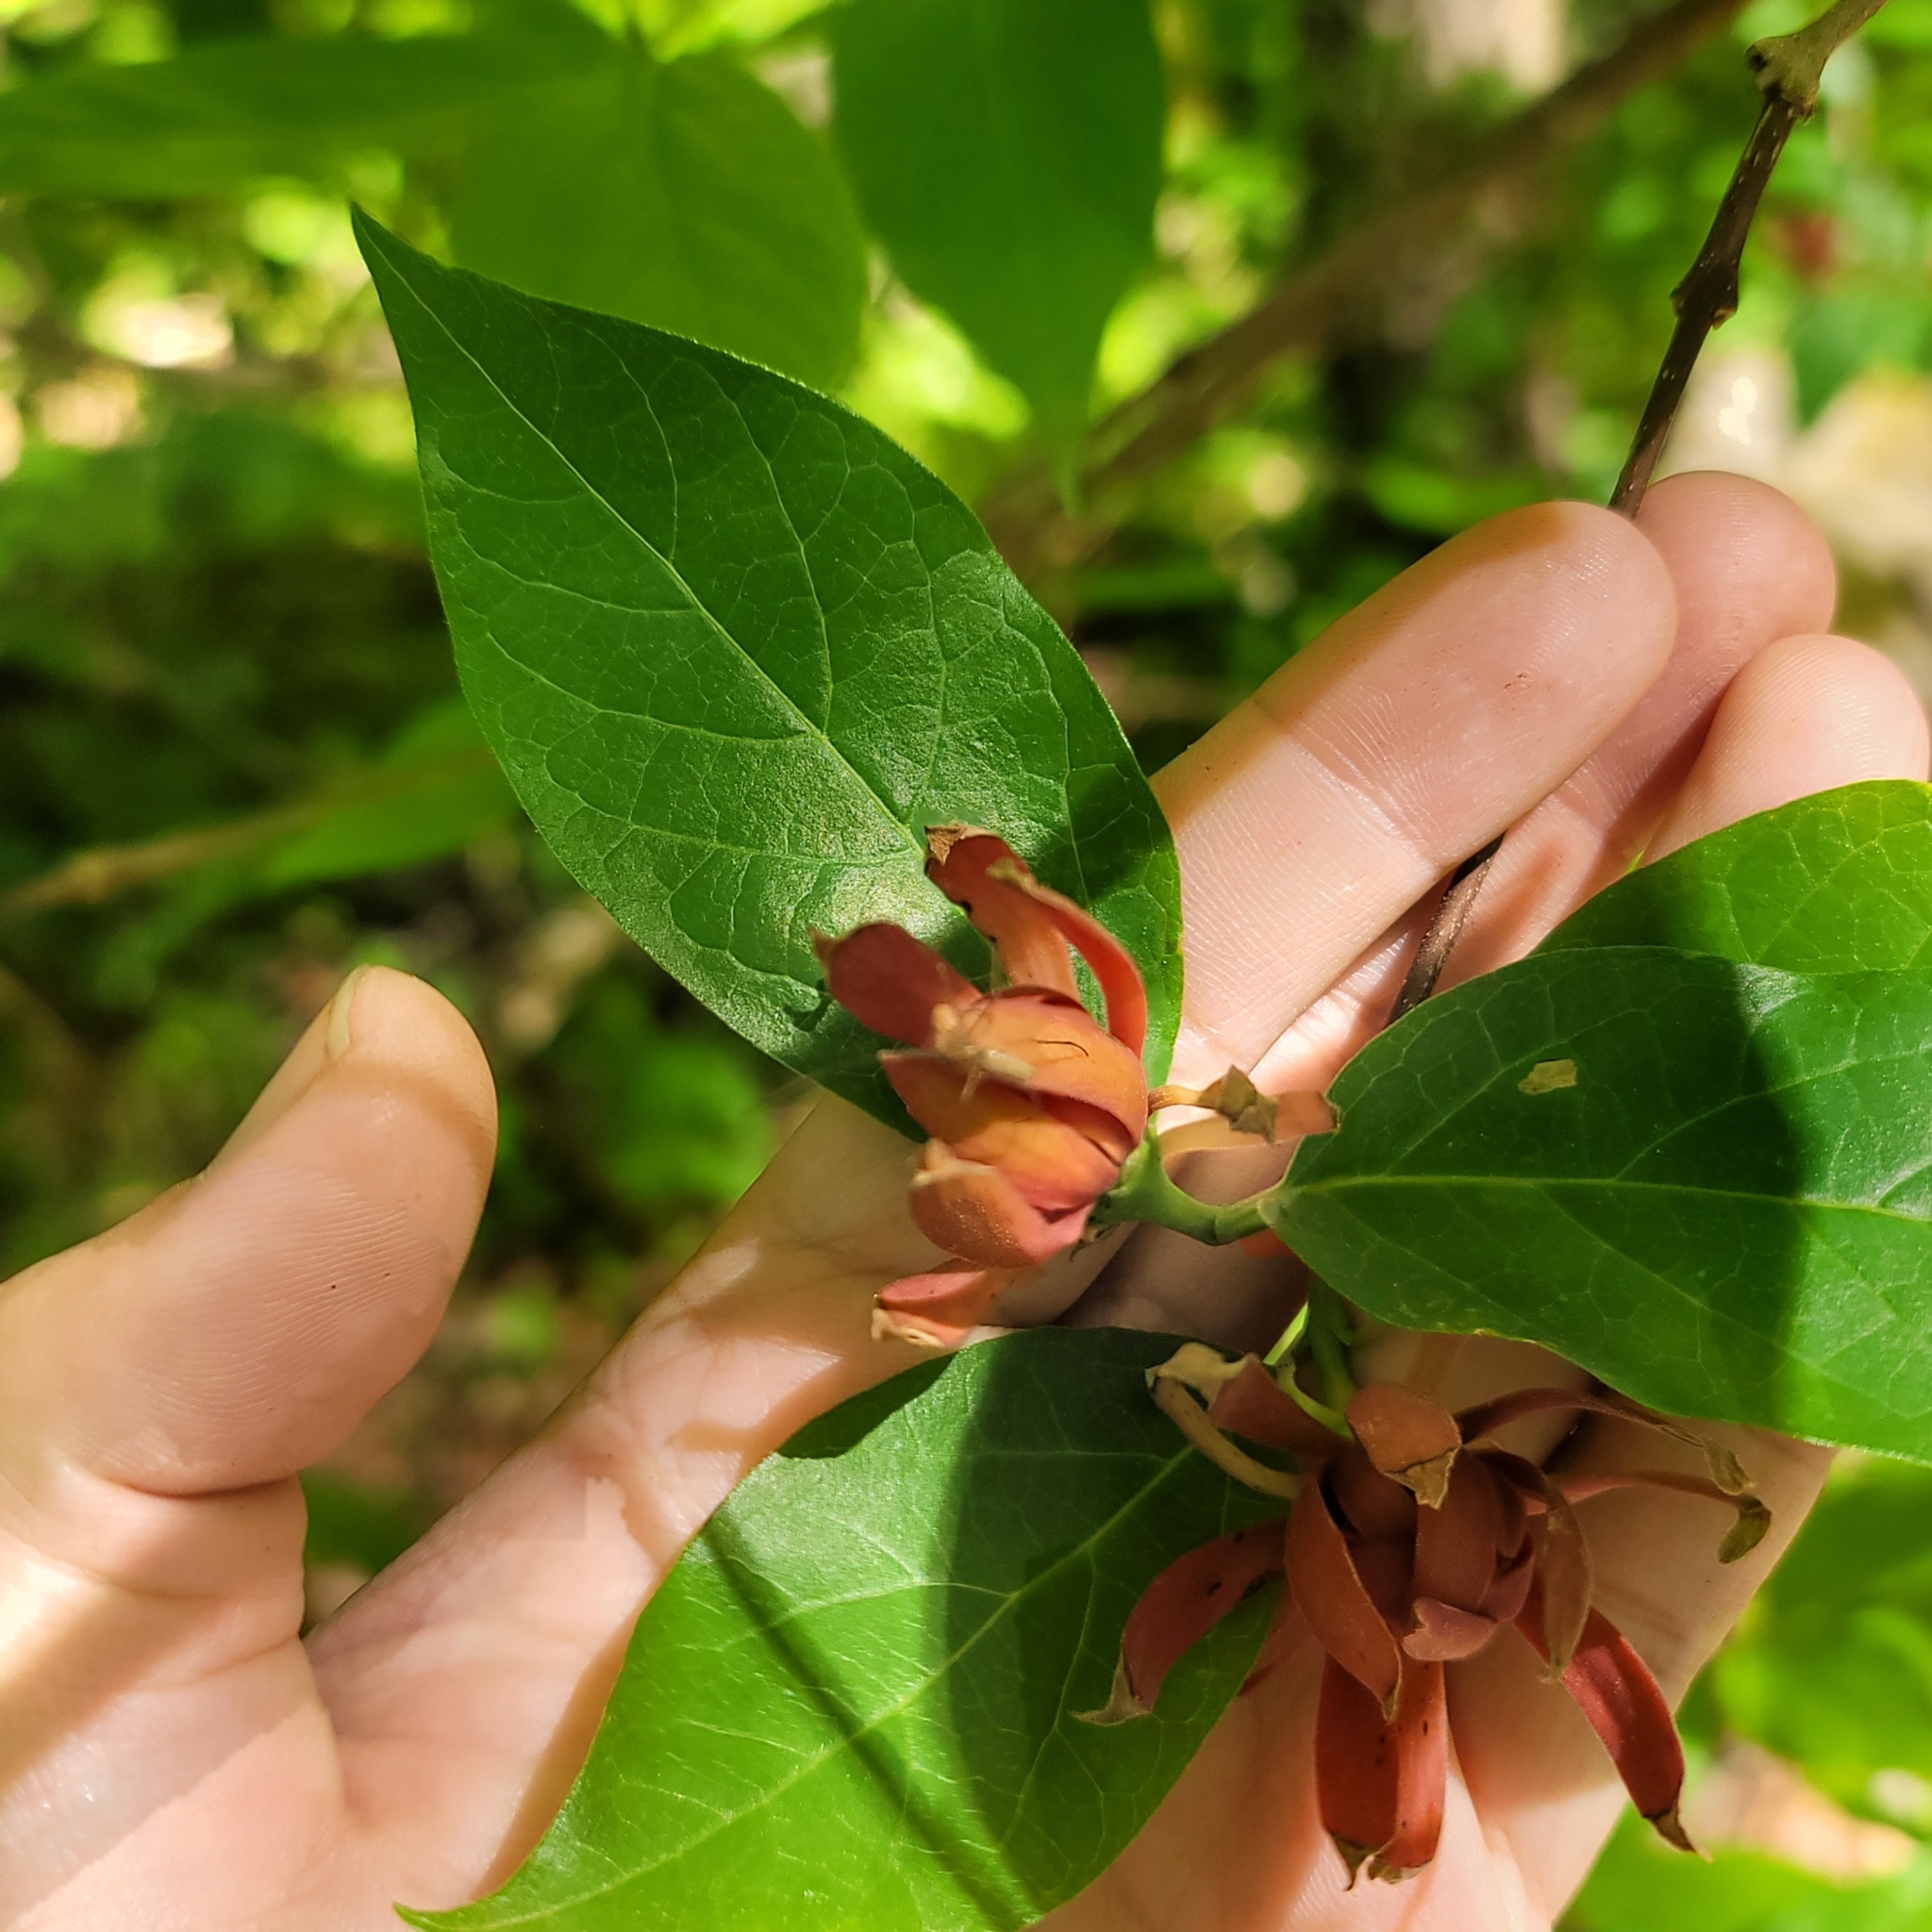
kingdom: Plantae
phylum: Tracheophyta
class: Magnoliopsida
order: Laurales
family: Calycanthaceae
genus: Calycanthus
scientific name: Calycanthus floridus
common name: Carolina-allspice
